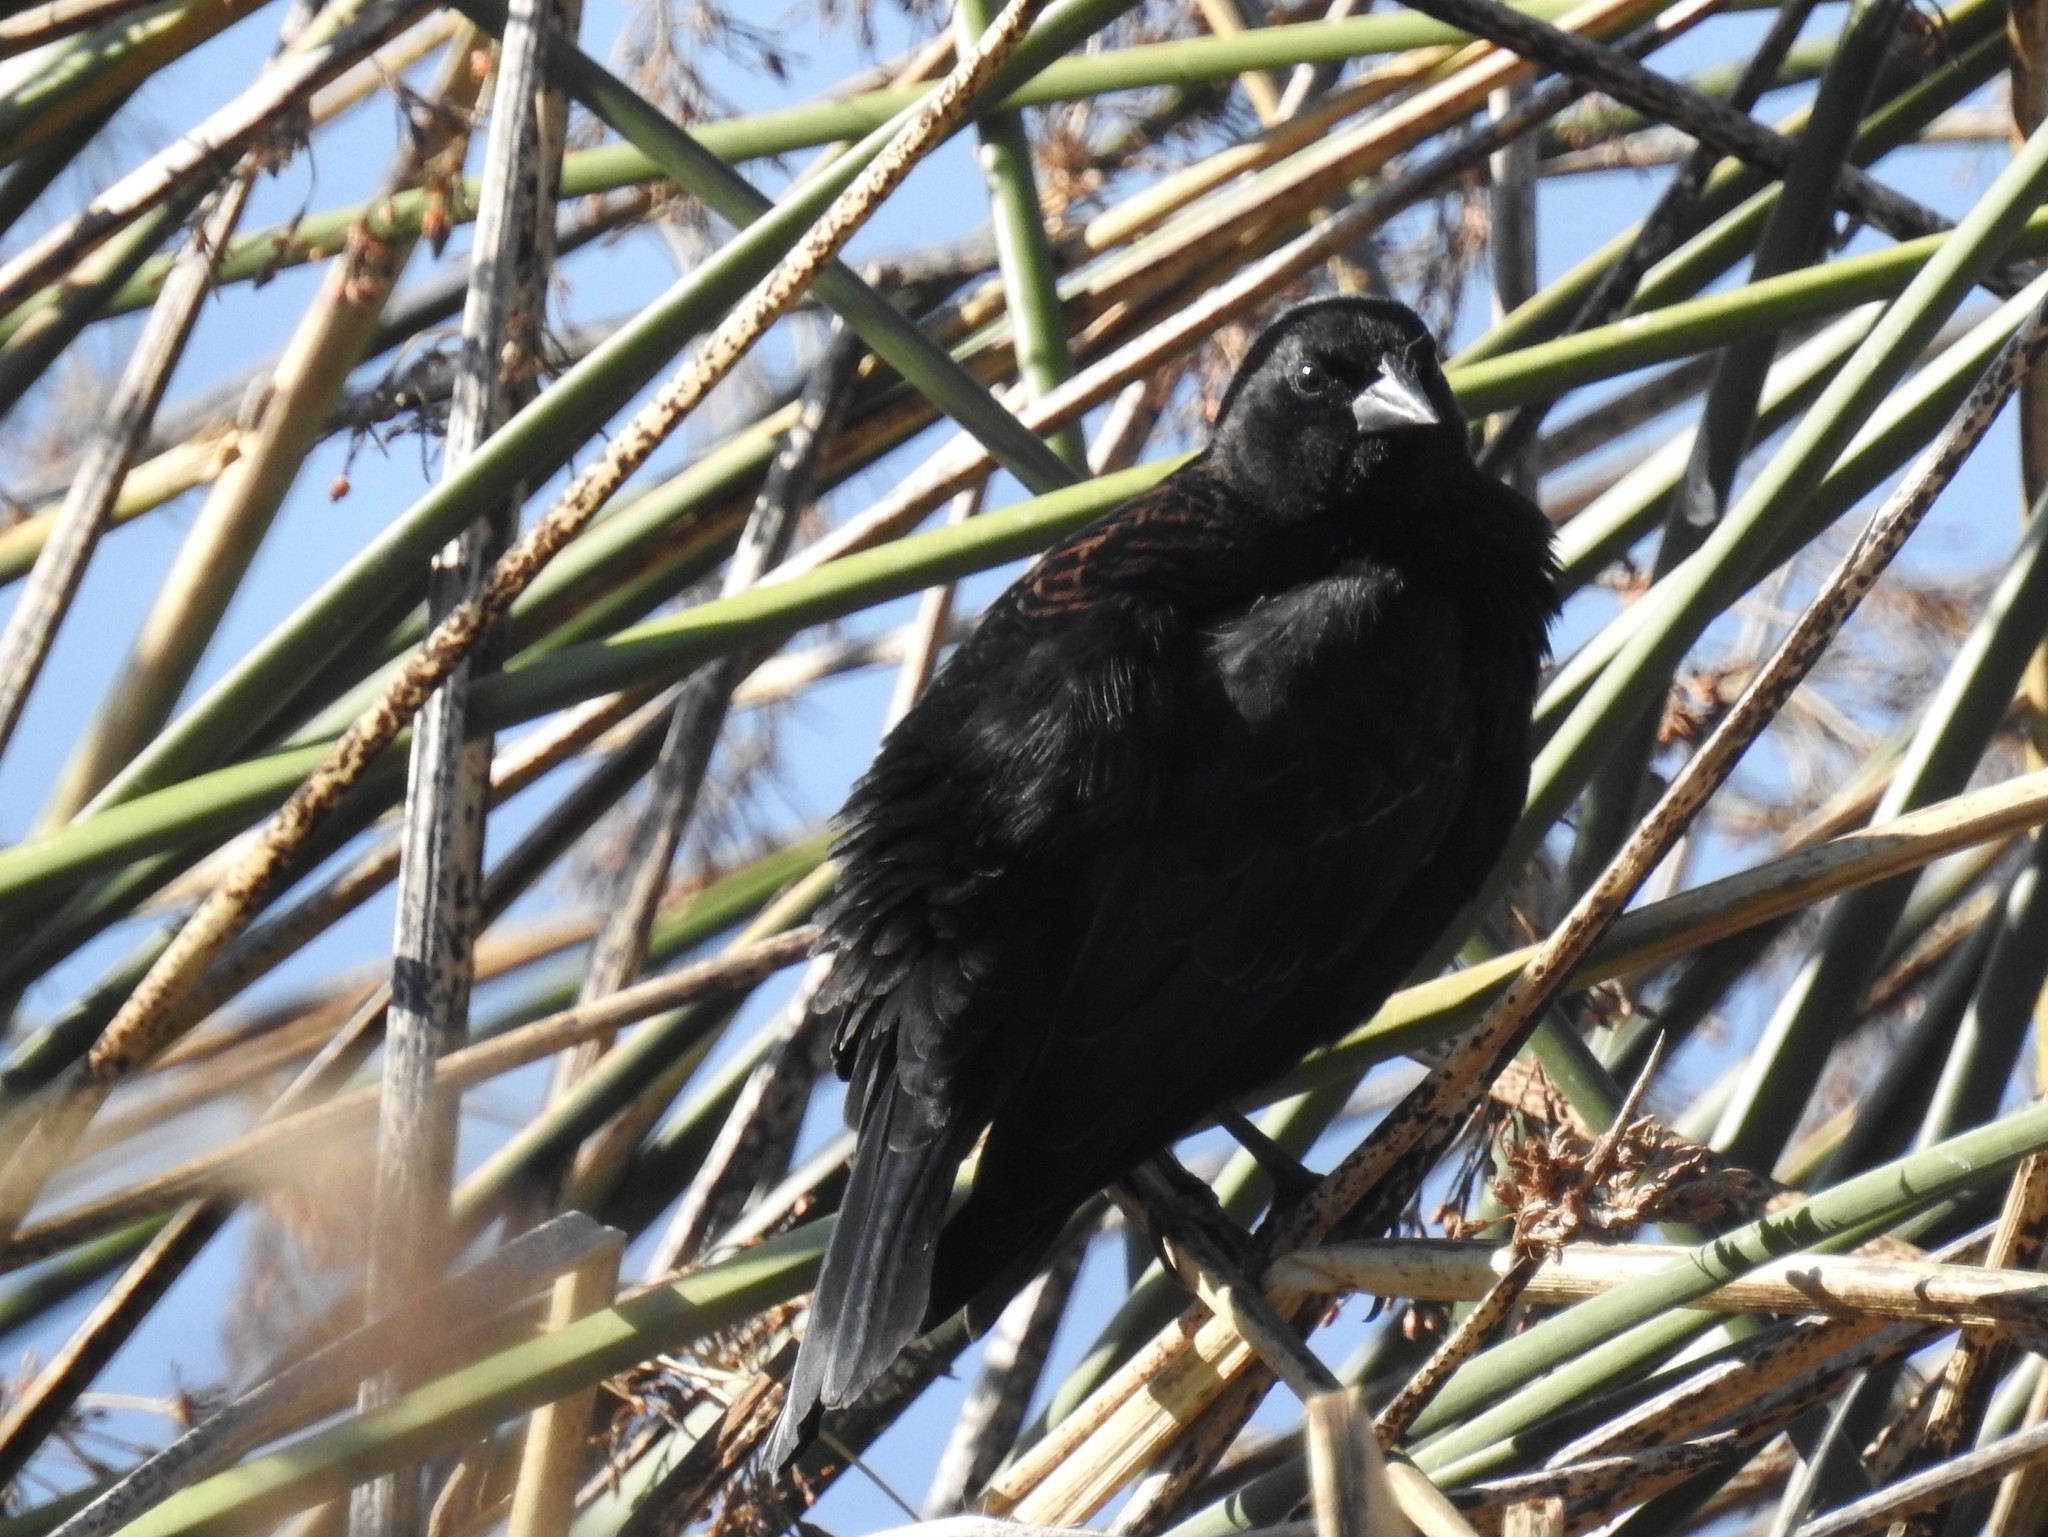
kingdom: Animalia
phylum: Chordata
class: Aves
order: Passeriformes
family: Icteridae
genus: Agelaius
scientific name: Agelaius phoeniceus
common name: Red-winged blackbird
